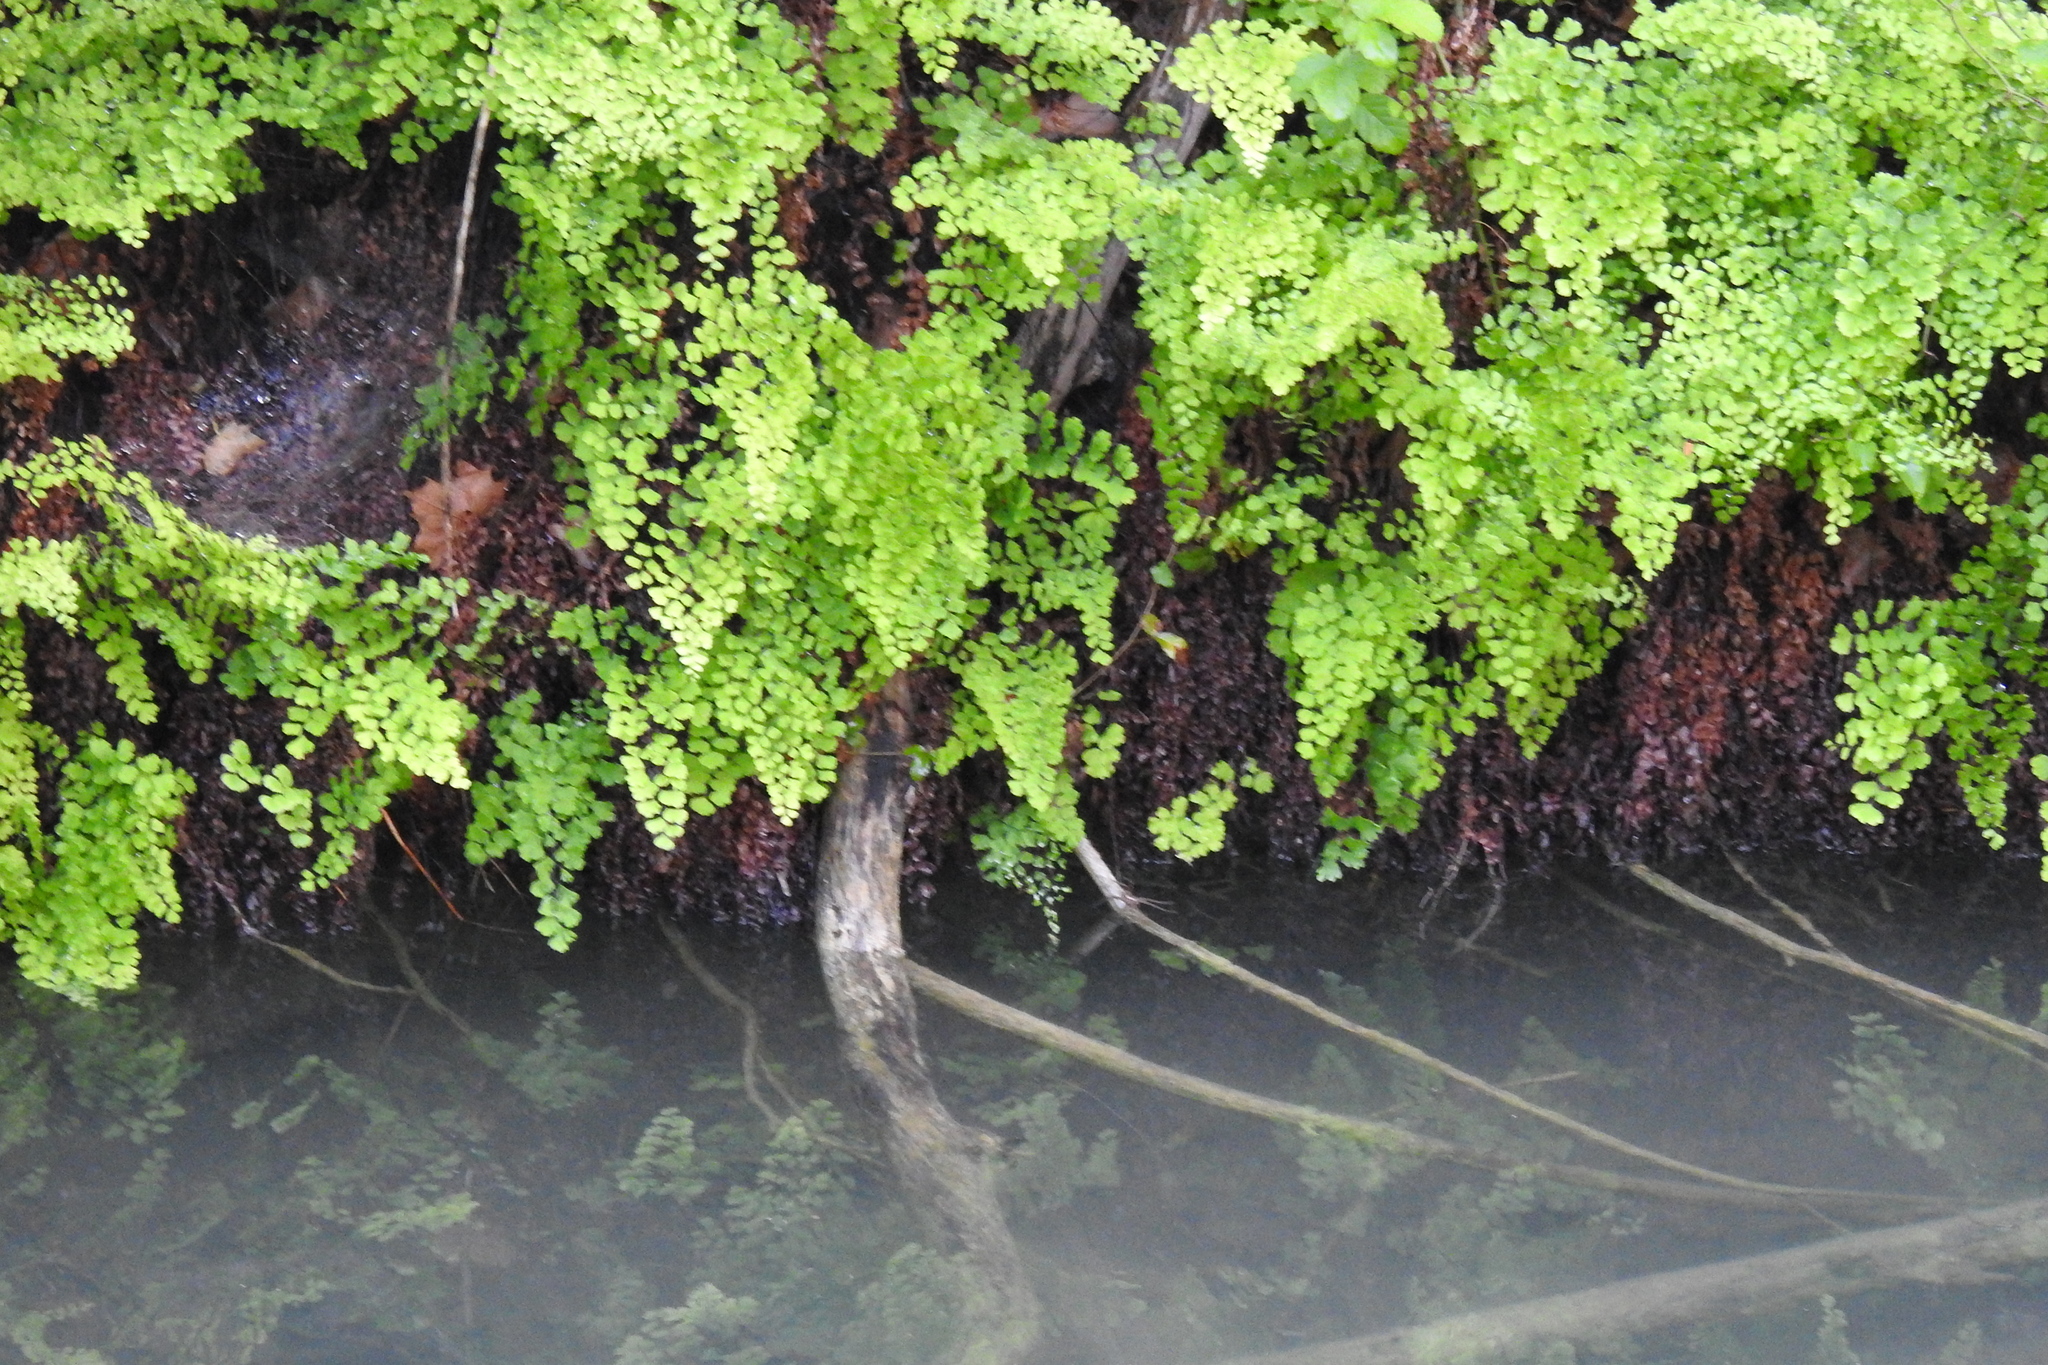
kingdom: Plantae
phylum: Tracheophyta
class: Polypodiopsida
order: Polypodiales
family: Pteridaceae
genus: Adiantum
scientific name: Adiantum capillus-veneris
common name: Maidenhair fern
